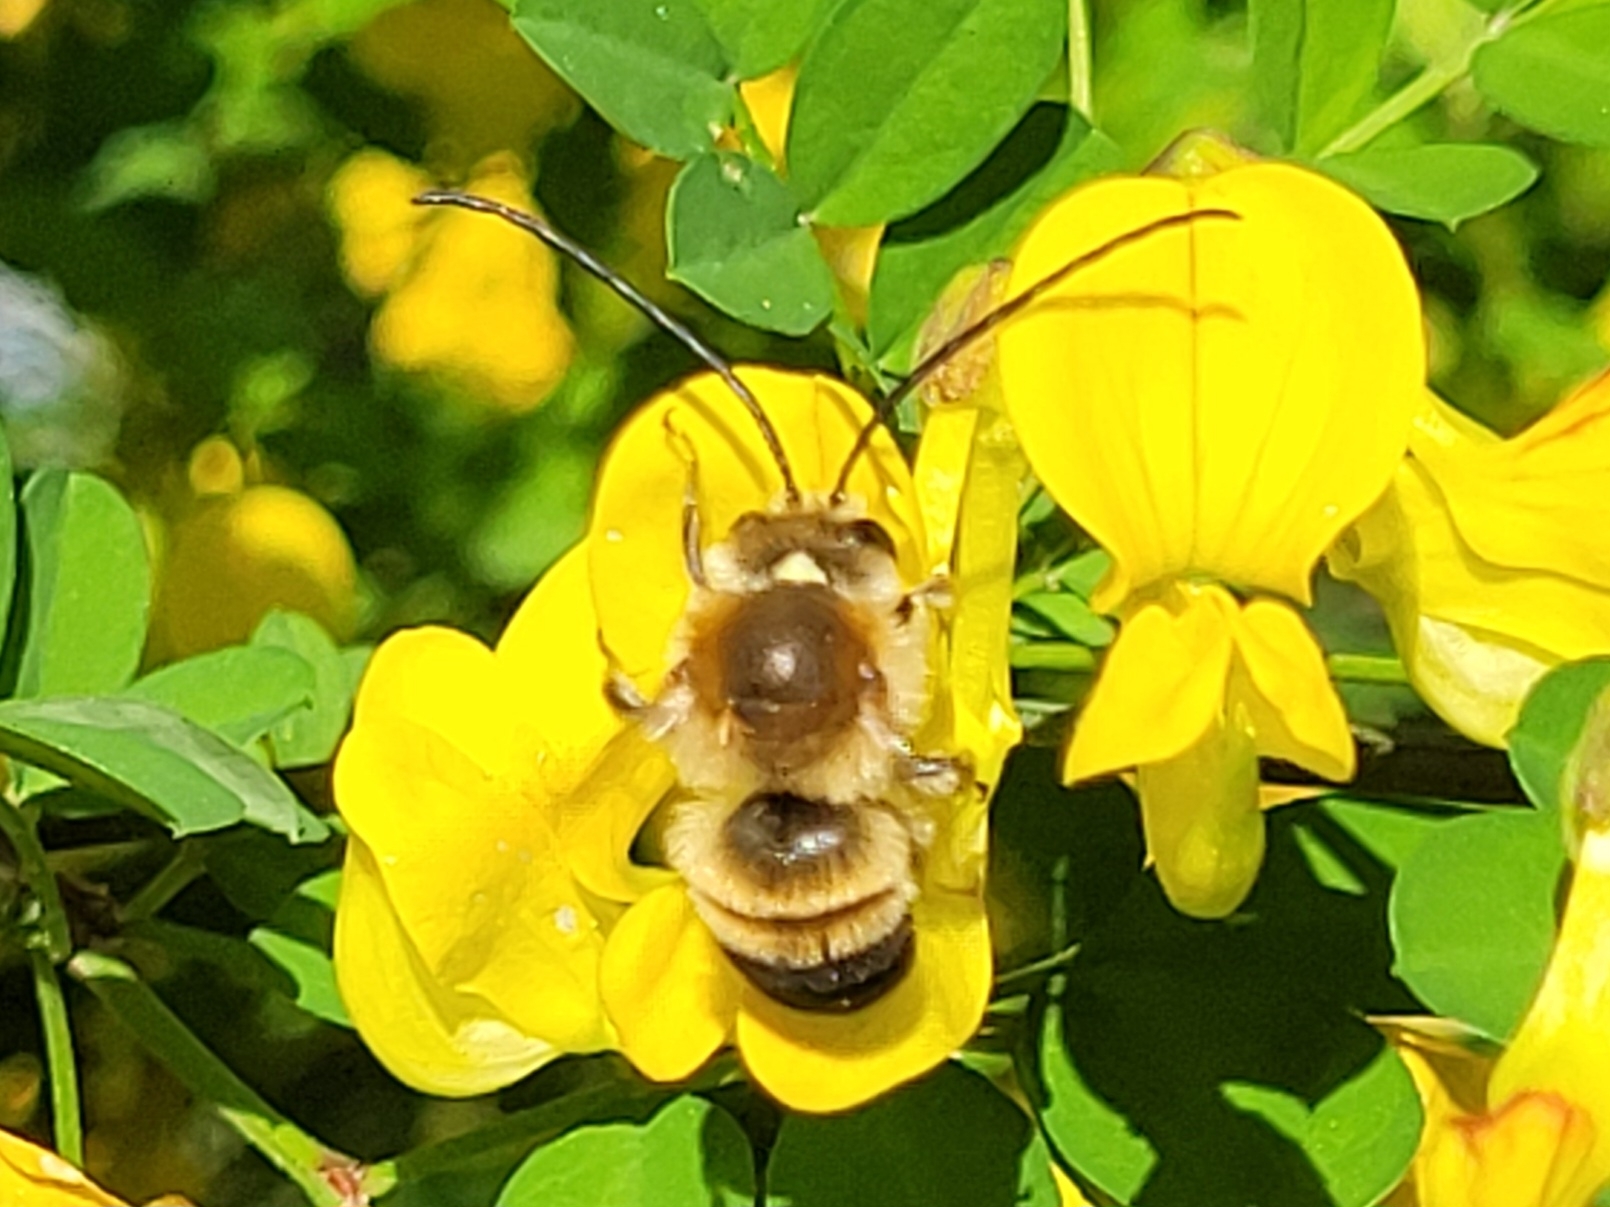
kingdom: Animalia
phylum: Arthropoda
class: Insecta
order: Hymenoptera
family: Apidae
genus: Eucera
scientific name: Eucera nigrescens
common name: Tuberculate long-horned bee
